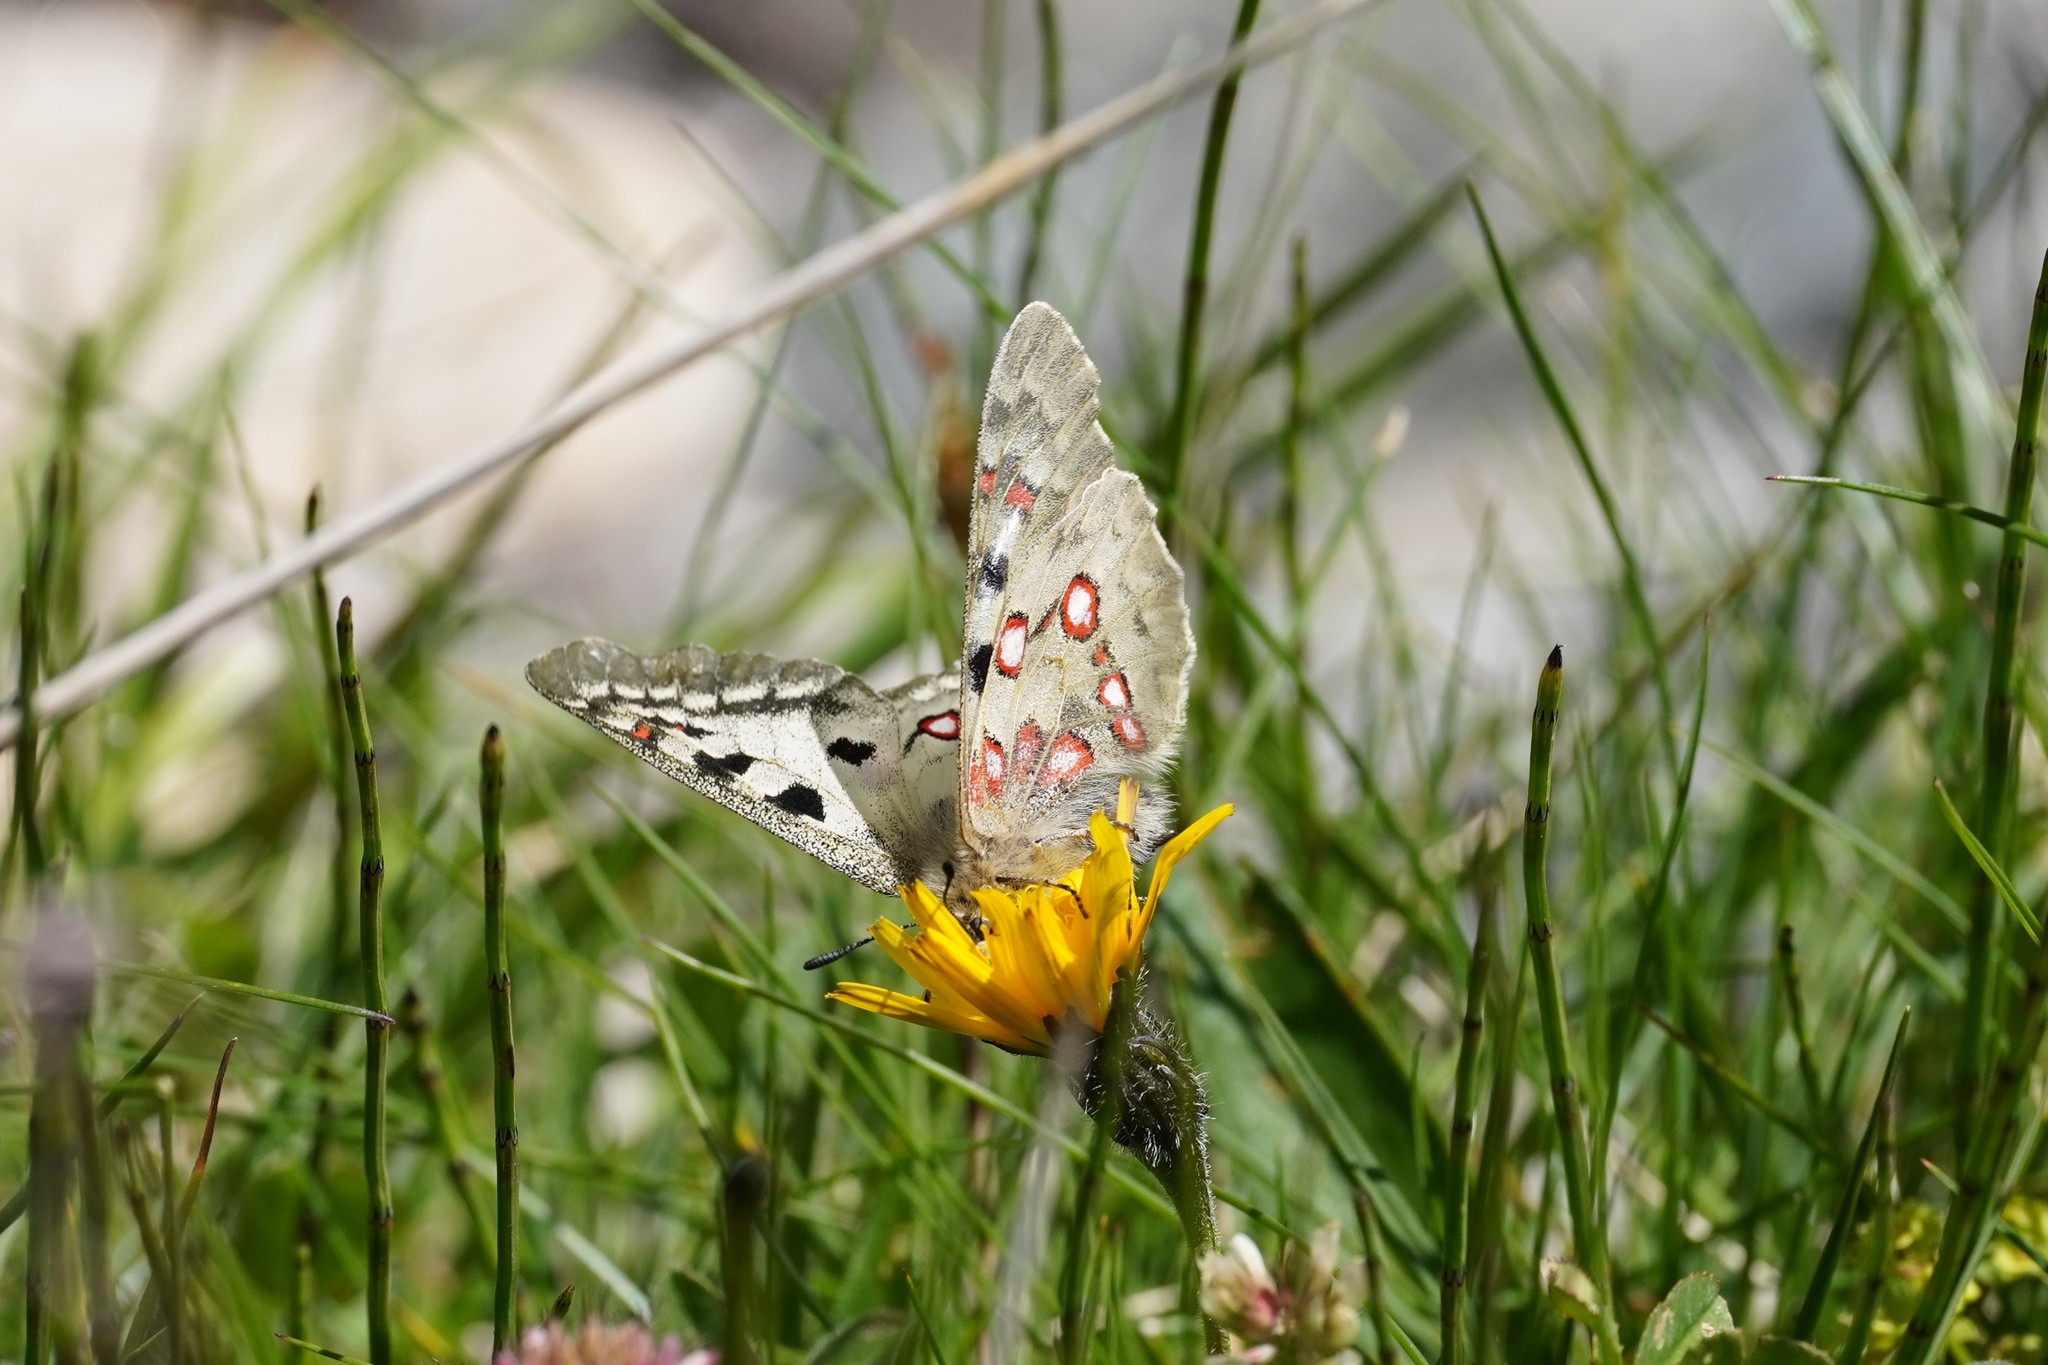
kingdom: Animalia
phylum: Arthropoda
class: Insecta
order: Lepidoptera
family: Papilionidae
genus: Parnassius
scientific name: Parnassius phoebus
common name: Small apollo
